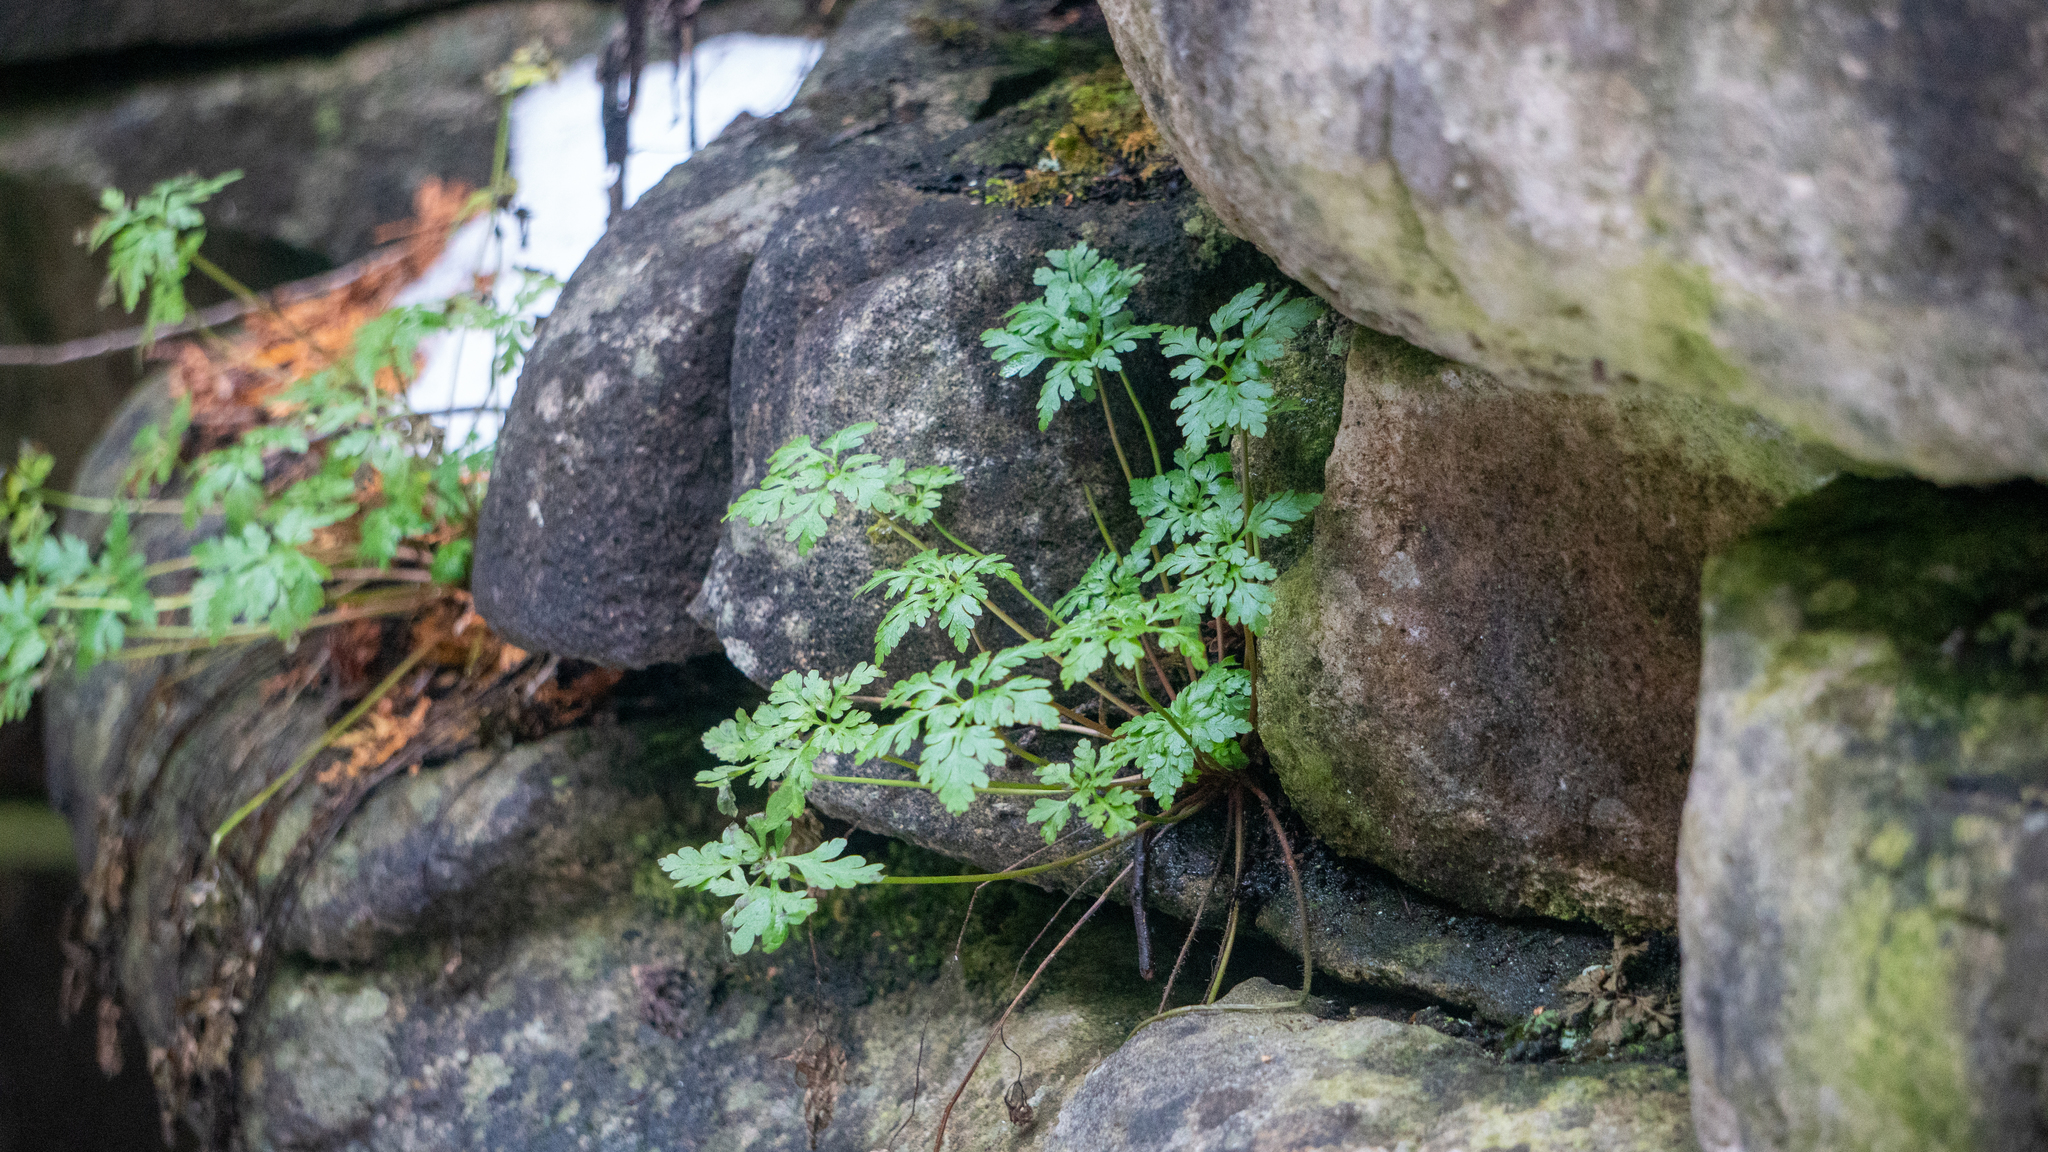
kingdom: Plantae
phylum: Tracheophyta
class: Magnoliopsida
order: Geraniales
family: Geraniaceae
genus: Geranium
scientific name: Geranium robertianum
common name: Herb-robert
